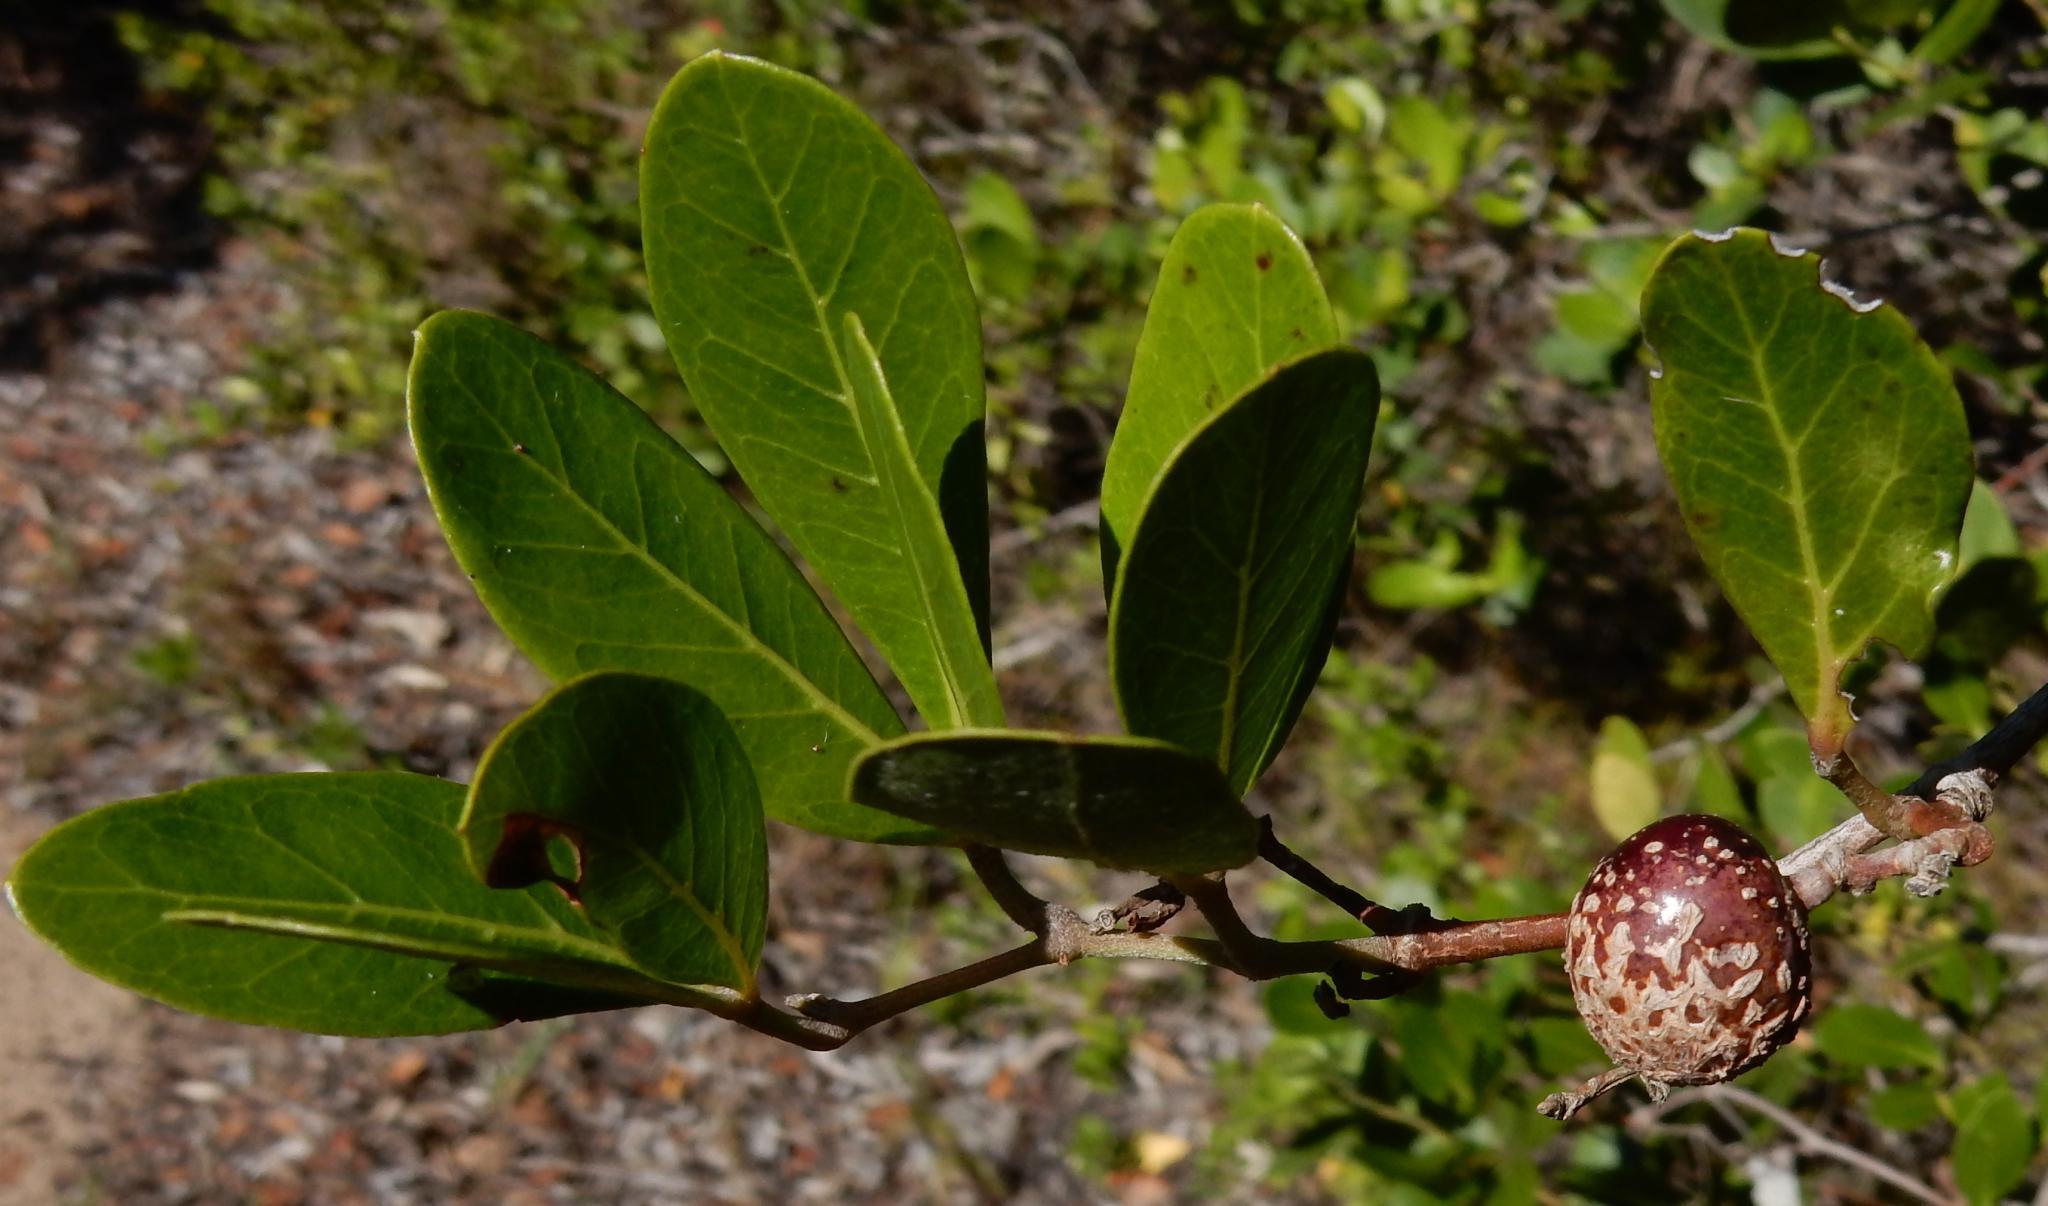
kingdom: Plantae
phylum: Tracheophyta
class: Magnoliopsida
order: Vitales
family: Vitaceae
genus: Rhoicissus
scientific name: Rhoicissus digitata
